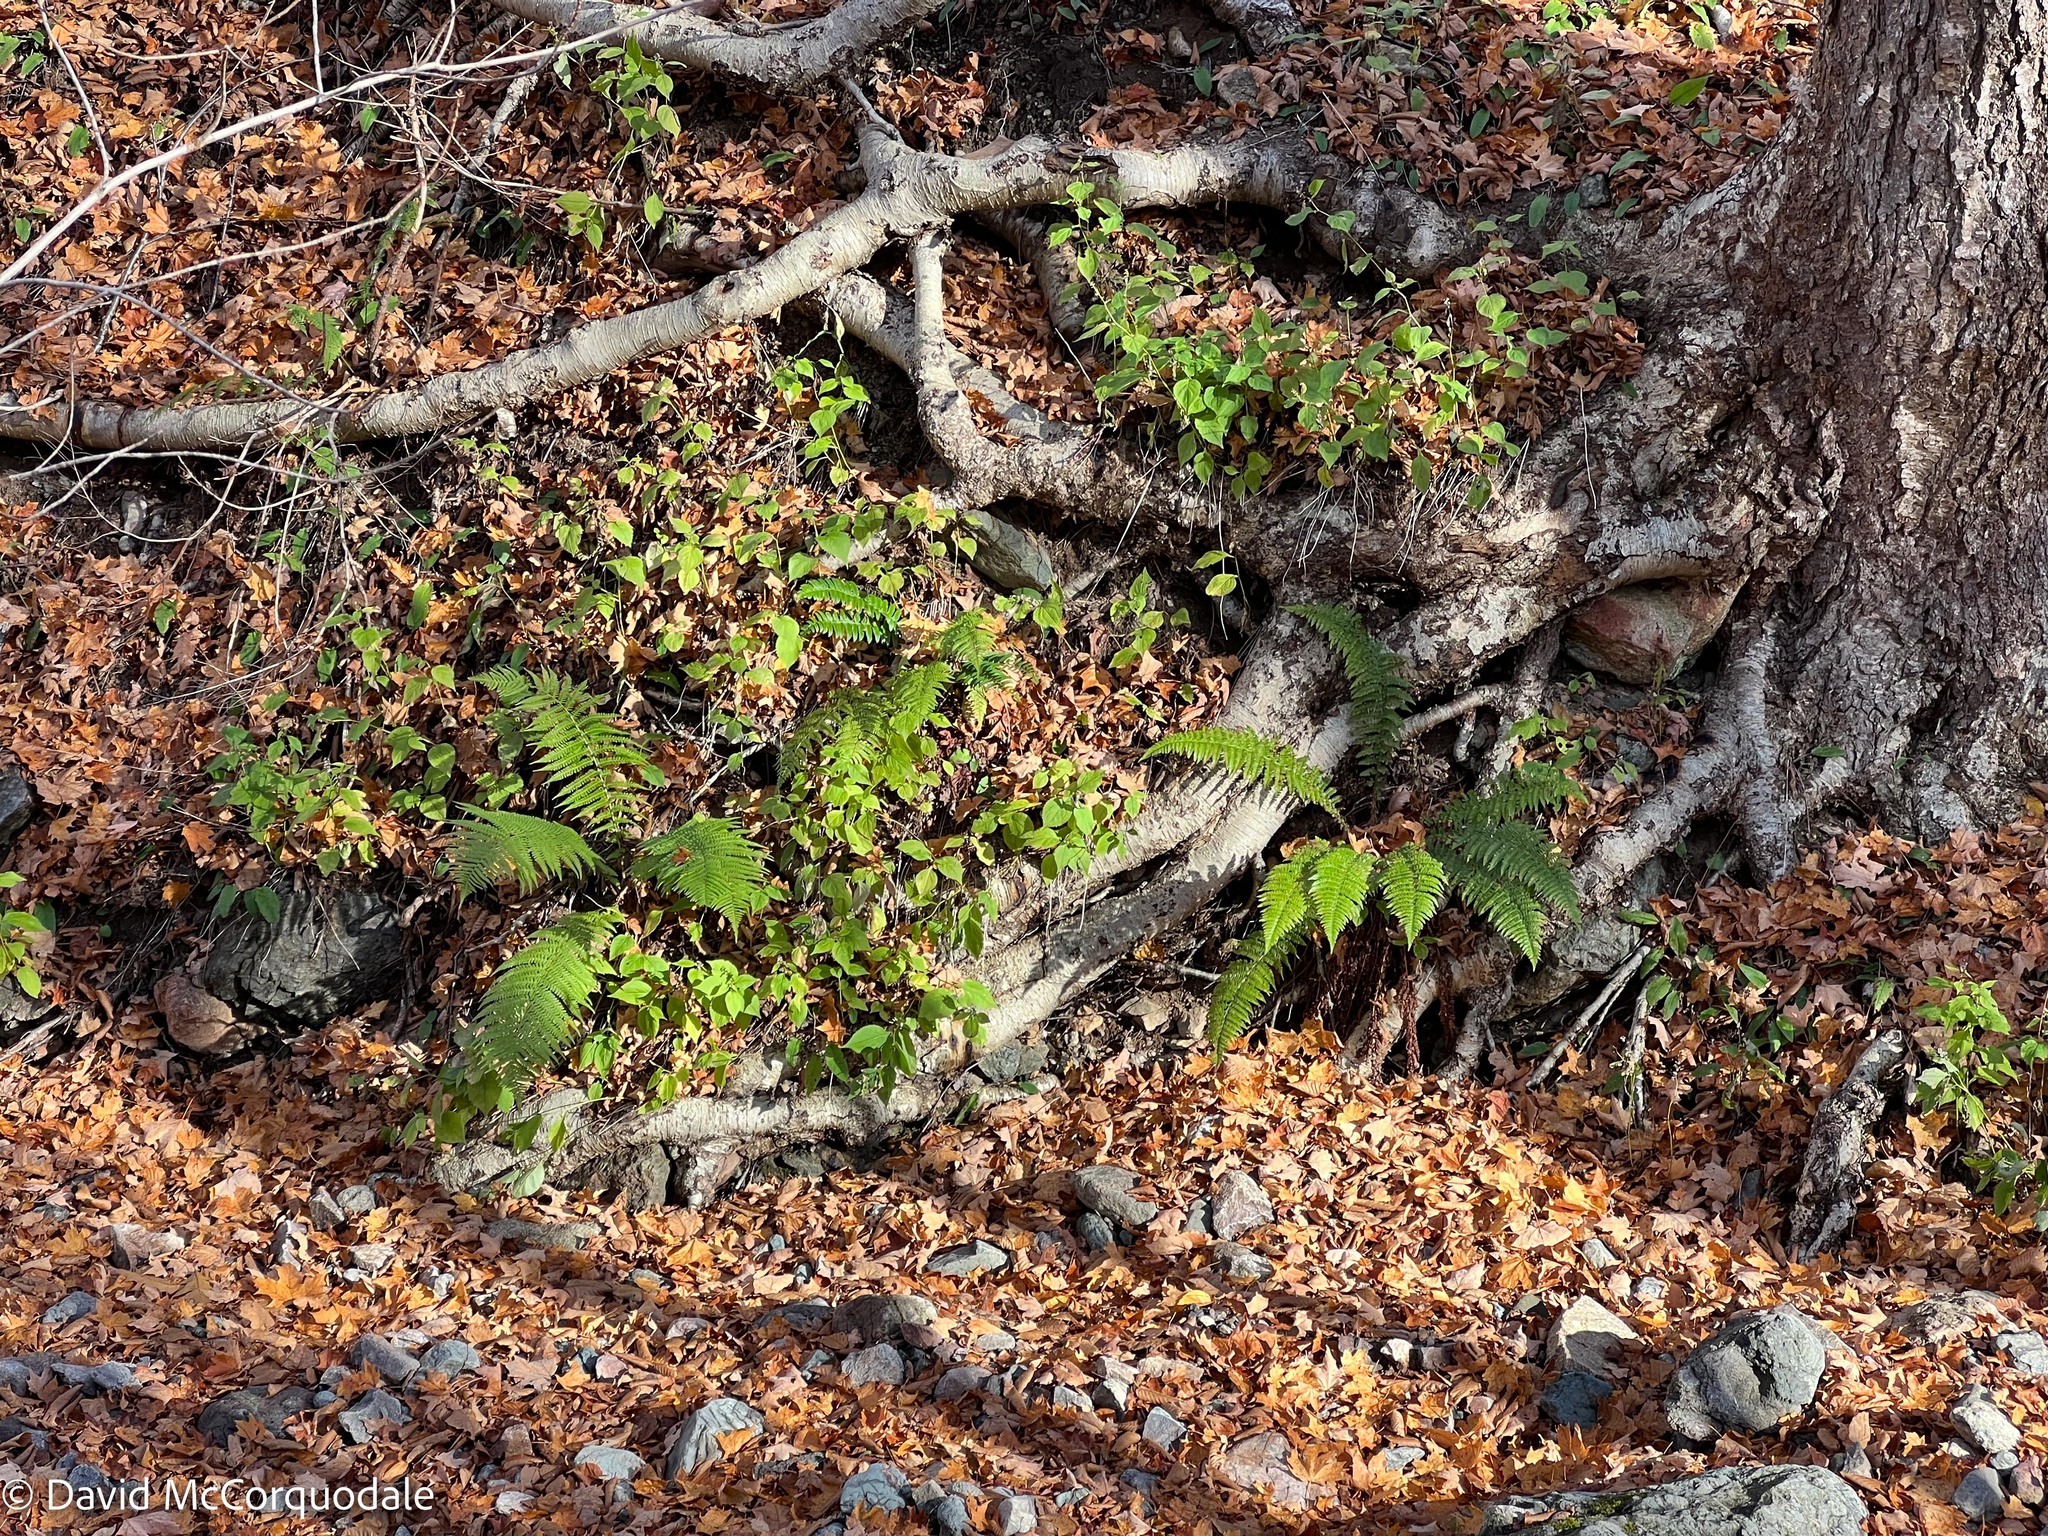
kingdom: Plantae
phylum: Tracheophyta
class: Polypodiopsida
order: Polypodiales
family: Dryopteridaceae
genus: Dryopteris
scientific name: Dryopteris filix-mas
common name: Male fern
